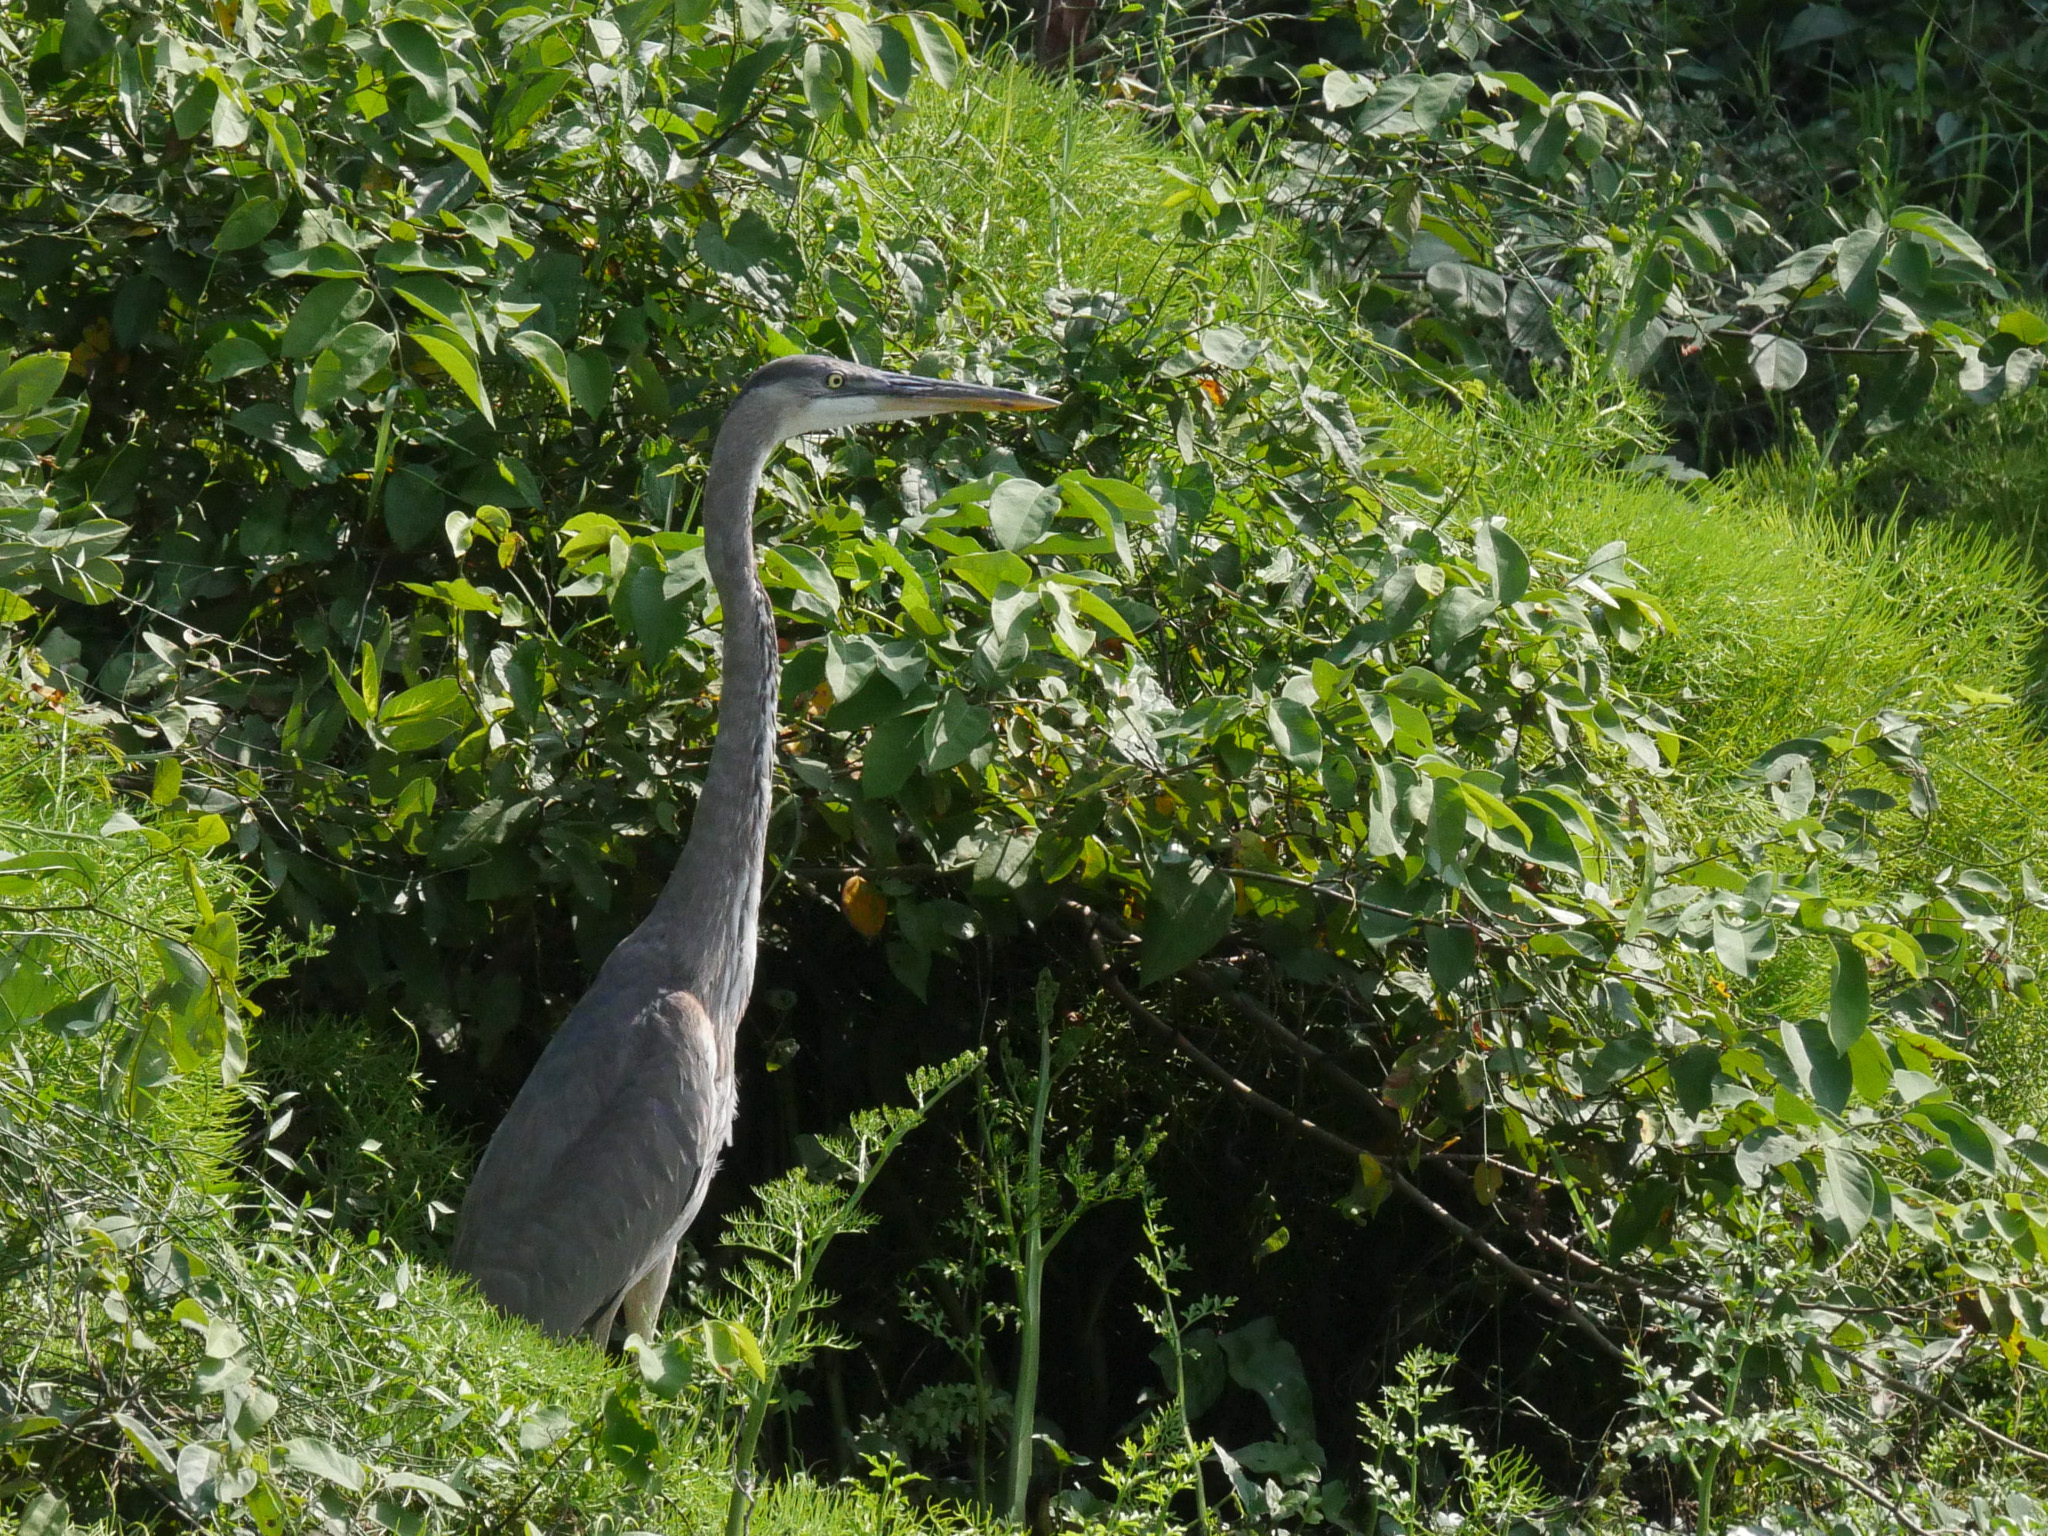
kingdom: Animalia
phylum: Chordata
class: Aves
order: Pelecaniformes
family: Ardeidae
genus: Ardea
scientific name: Ardea herodias
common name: Great blue heron
